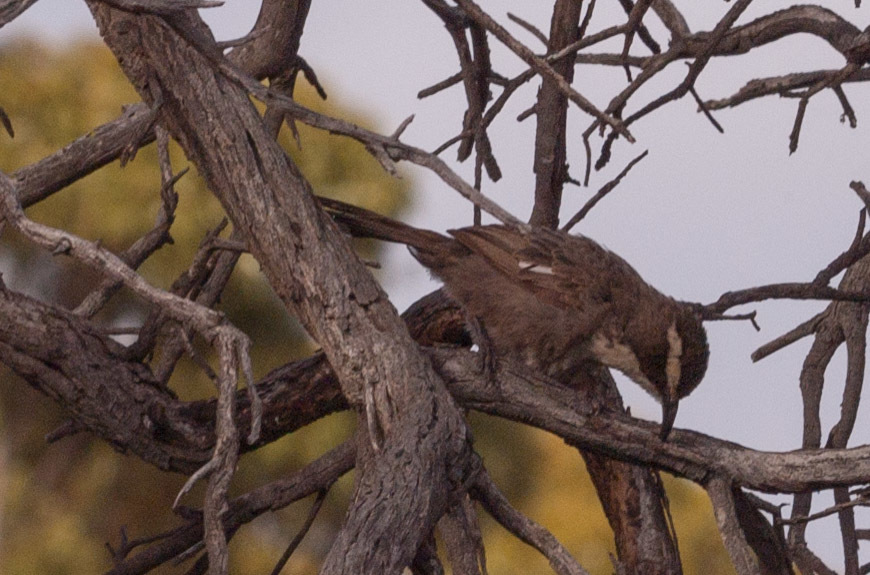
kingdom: Animalia
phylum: Chordata
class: Aves
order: Passeriformes
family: Pomatostomidae
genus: Pomatostomus
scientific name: Pomatostomus superciliosus
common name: White-browed babbler
